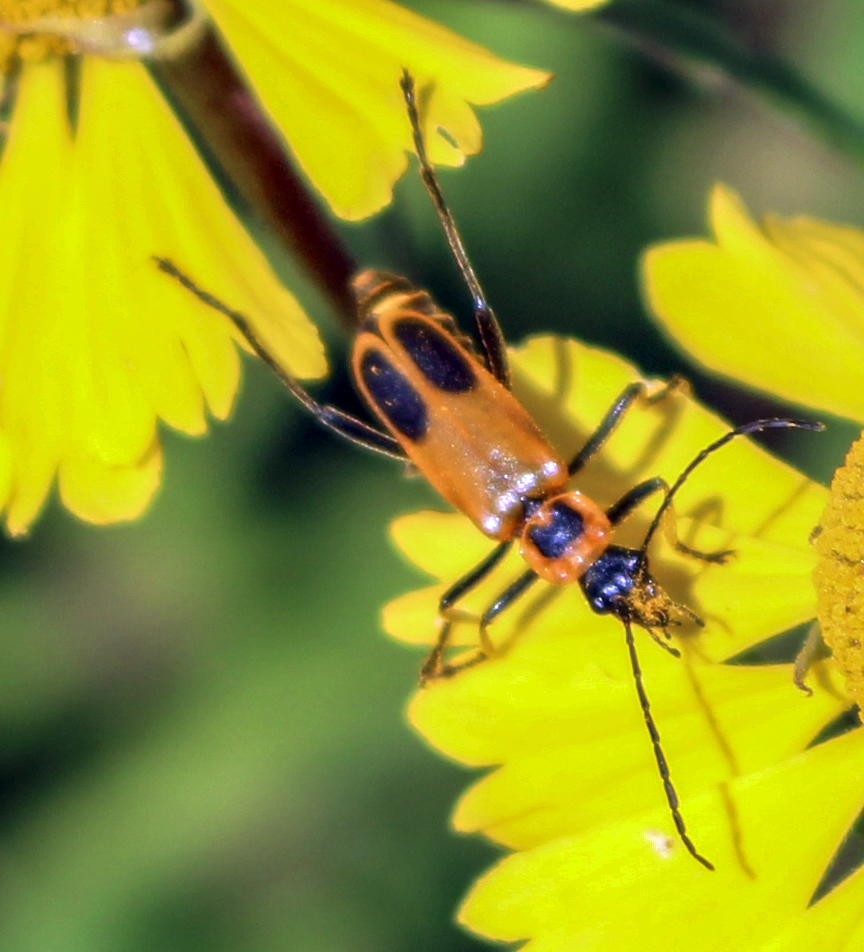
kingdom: Animalia
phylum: Arthropoda
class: Insecta
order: Coleoptera
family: Cantharidae
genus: Chauliognathus
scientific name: Chauliognathus pensylvanicus
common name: Goldenrod soldier beetle
